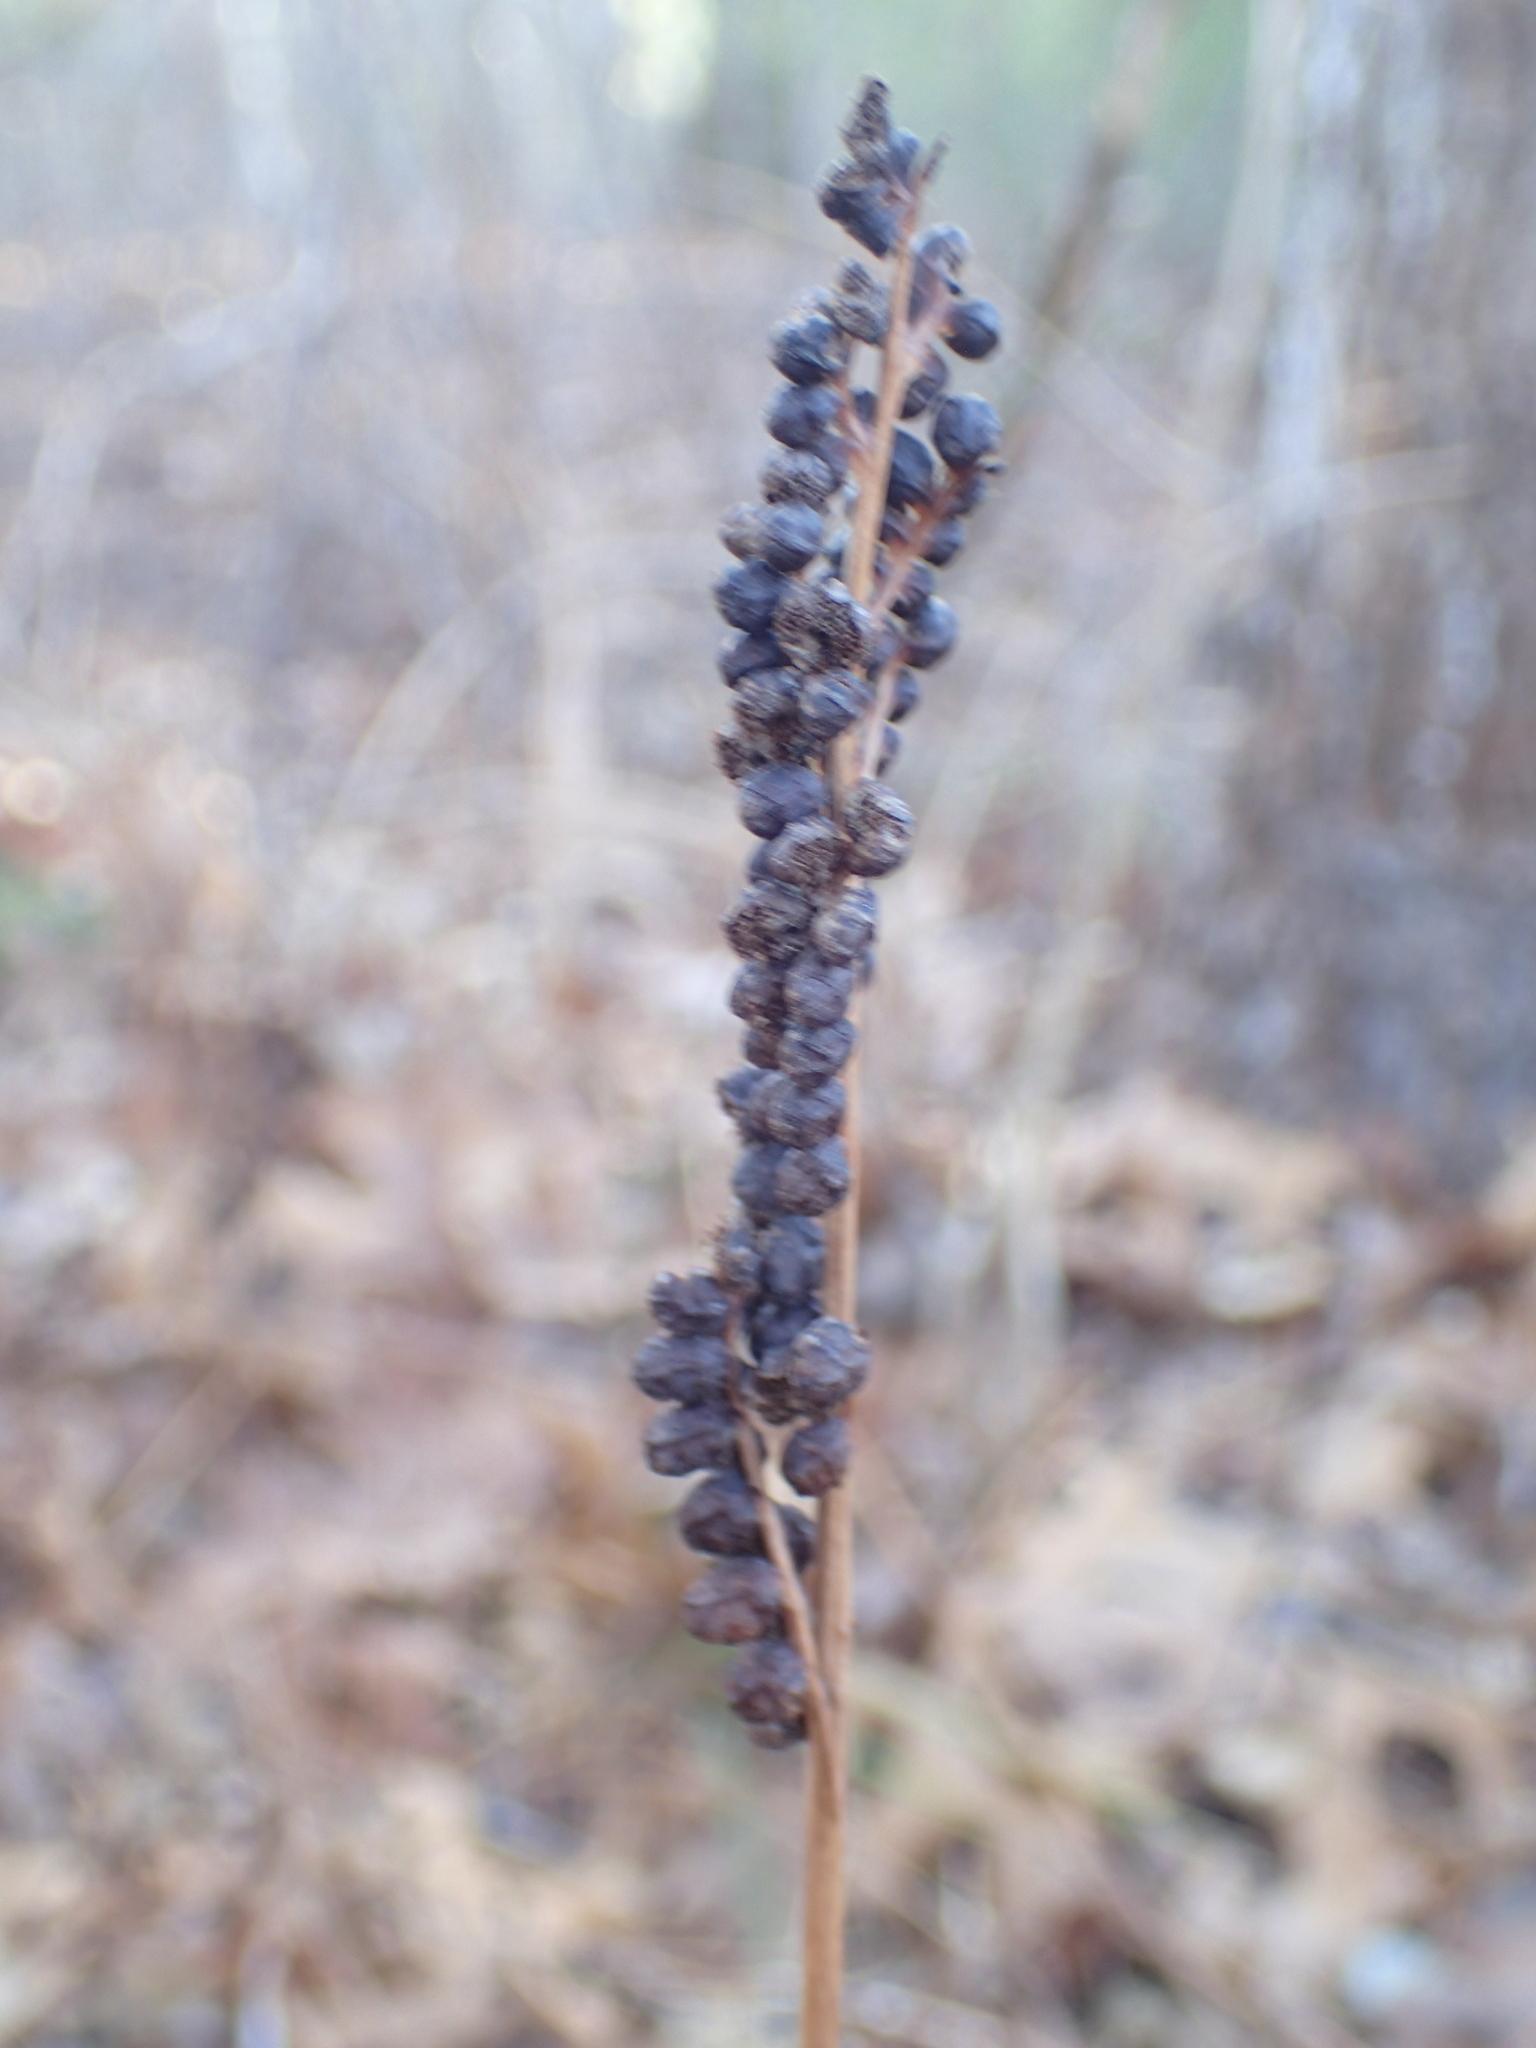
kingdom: Plantae
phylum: Tracheophyta
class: Polypodiopsida
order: Polypodiales
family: Onocleaceae
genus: Onoclea
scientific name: Onoclea sensibilis
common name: Sensitive fern
